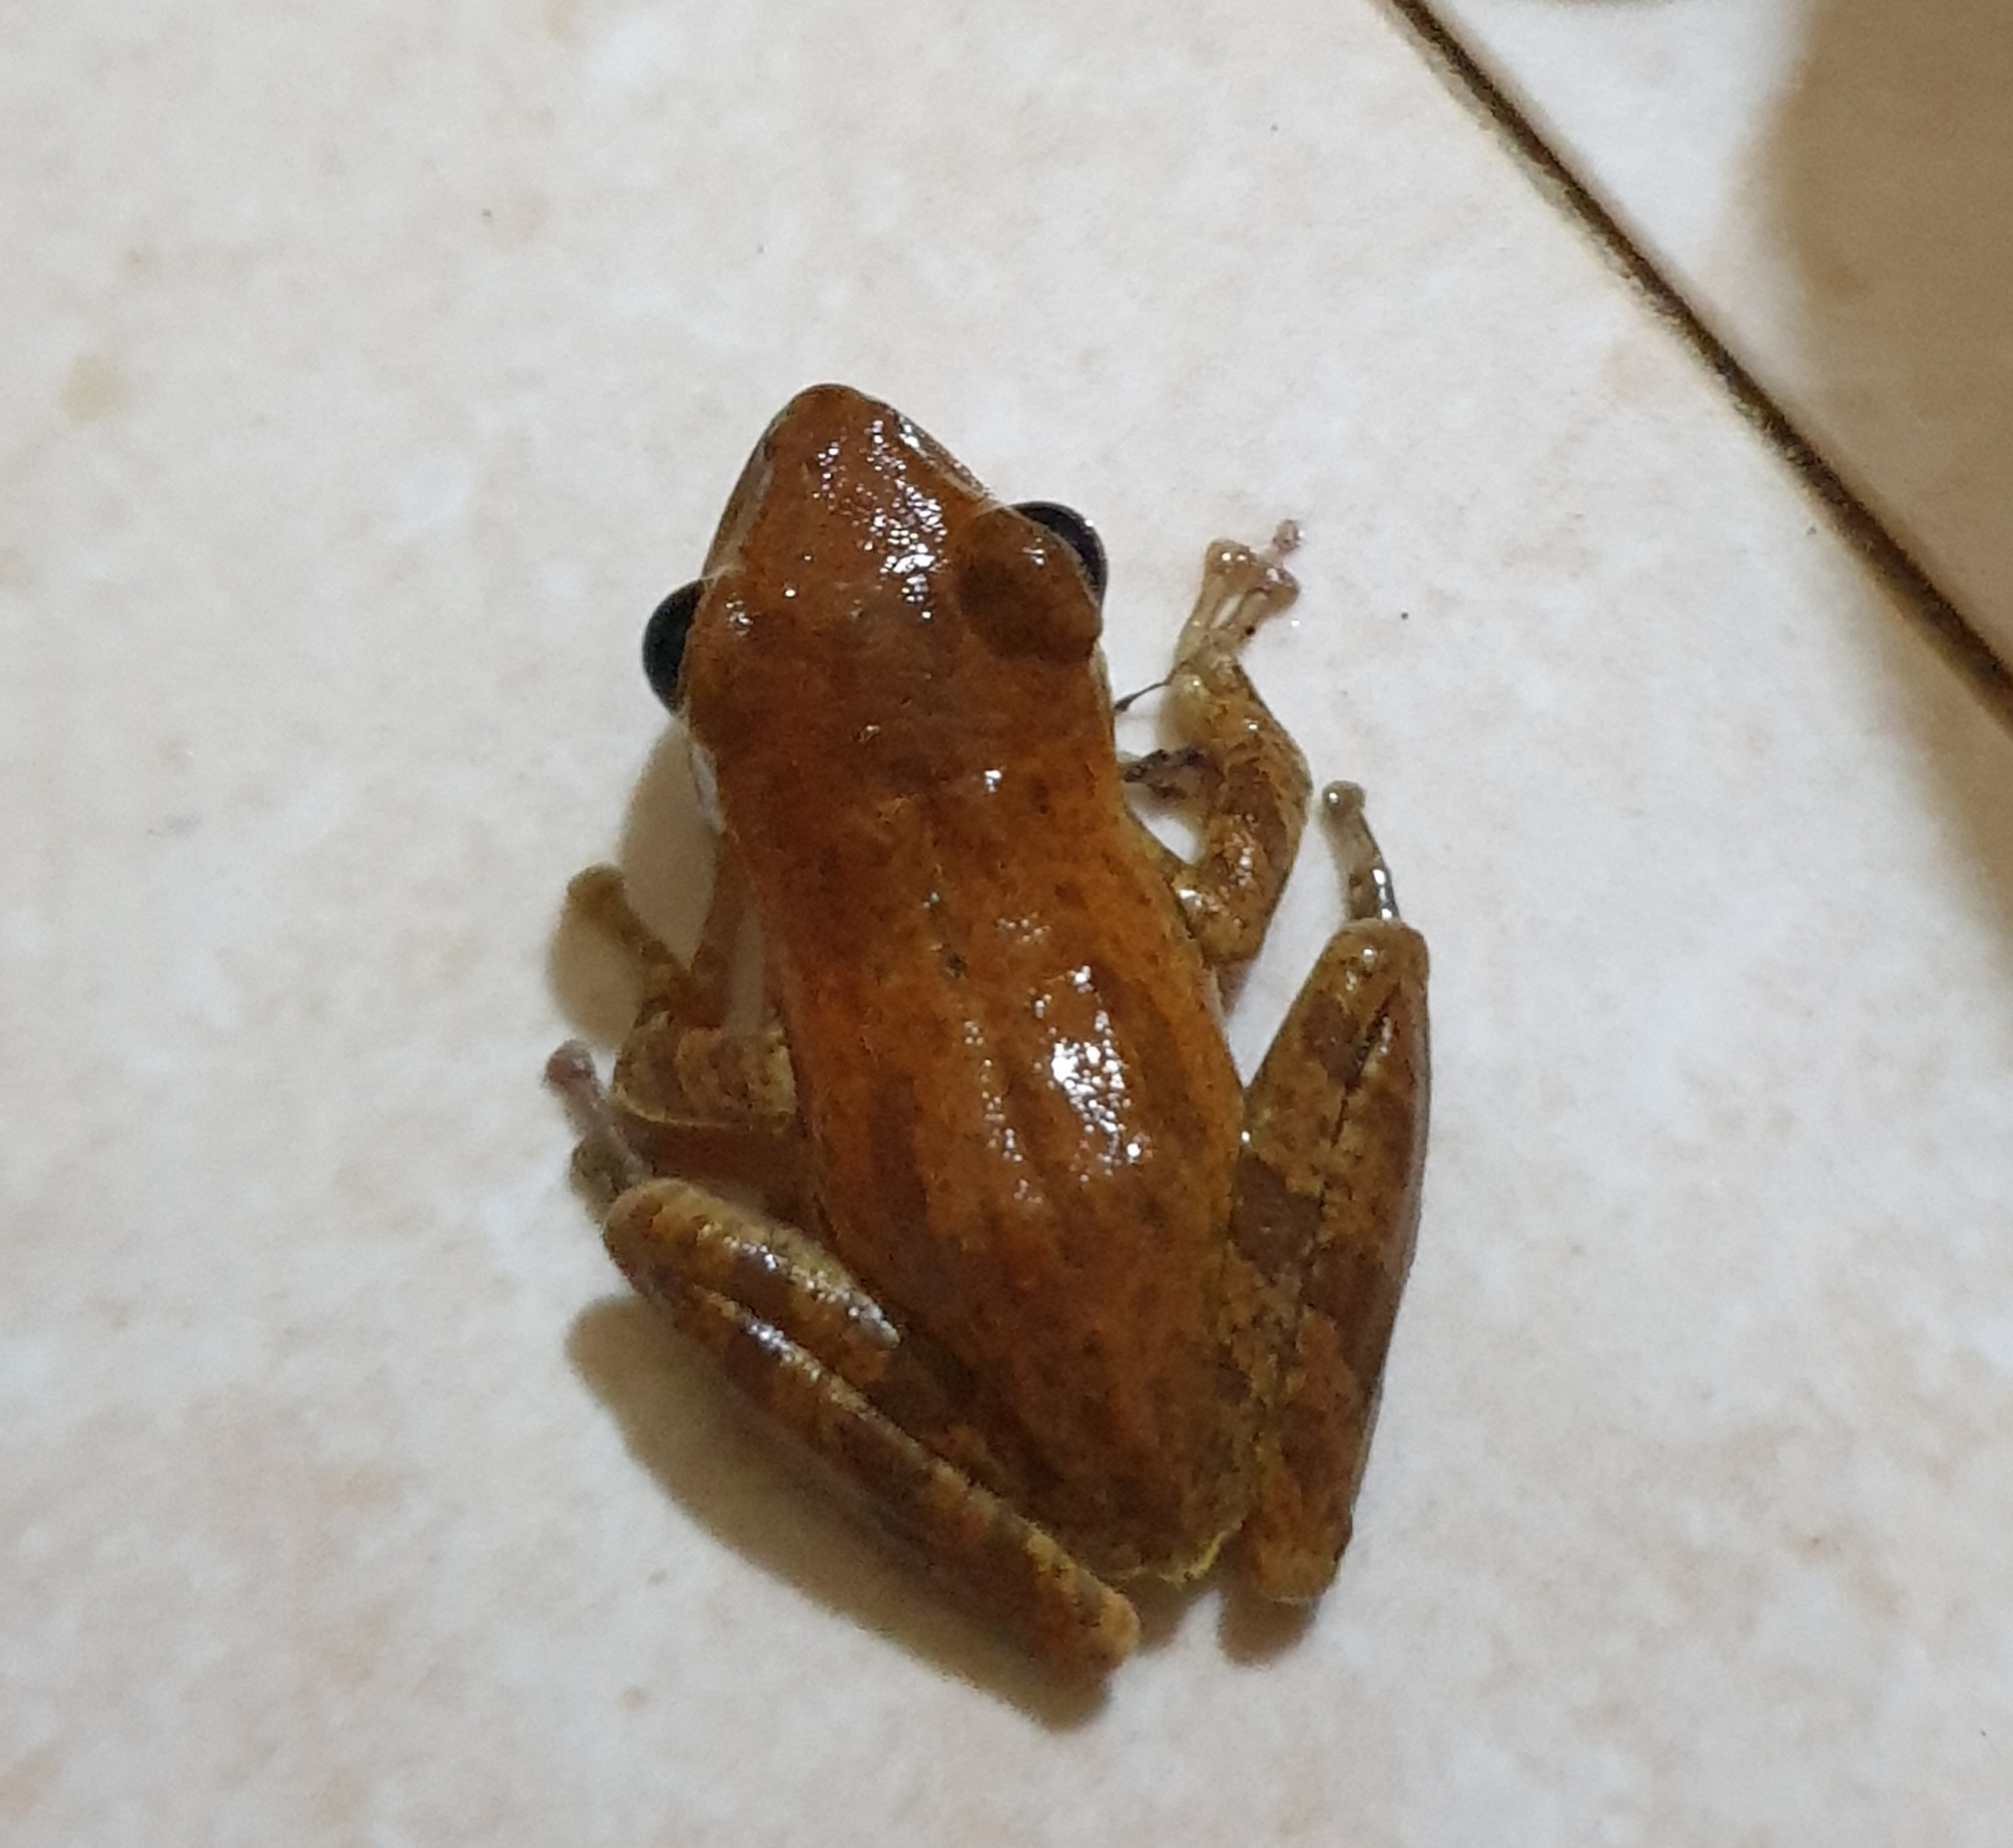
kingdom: Animalia
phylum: Chordata
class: Amphibia
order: Anura
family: Rhacophoridae
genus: Polypedates
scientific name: Polypedates maculatus
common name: Himalayan tree frog
